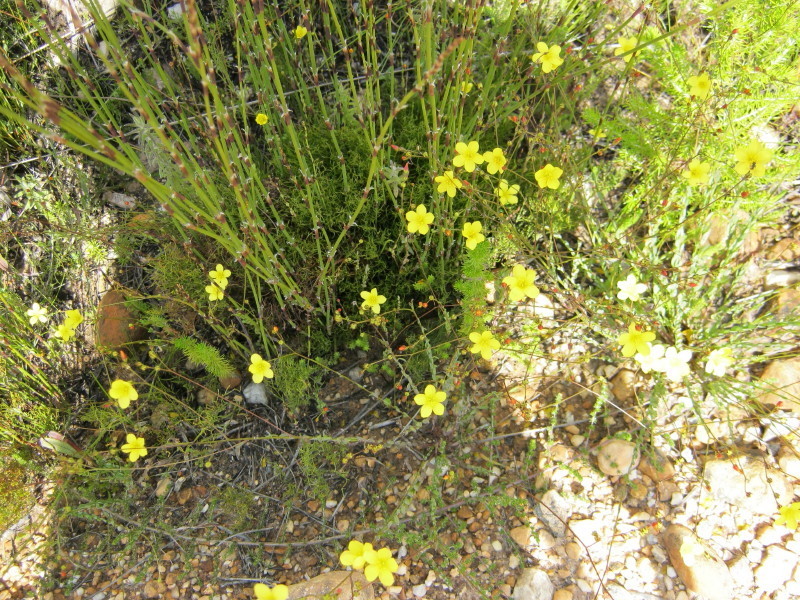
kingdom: Plantae
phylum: Tracheophyta
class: Magnoliopsida
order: Malpighiales
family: Linaceae
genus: Linum
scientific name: Linum africanum
